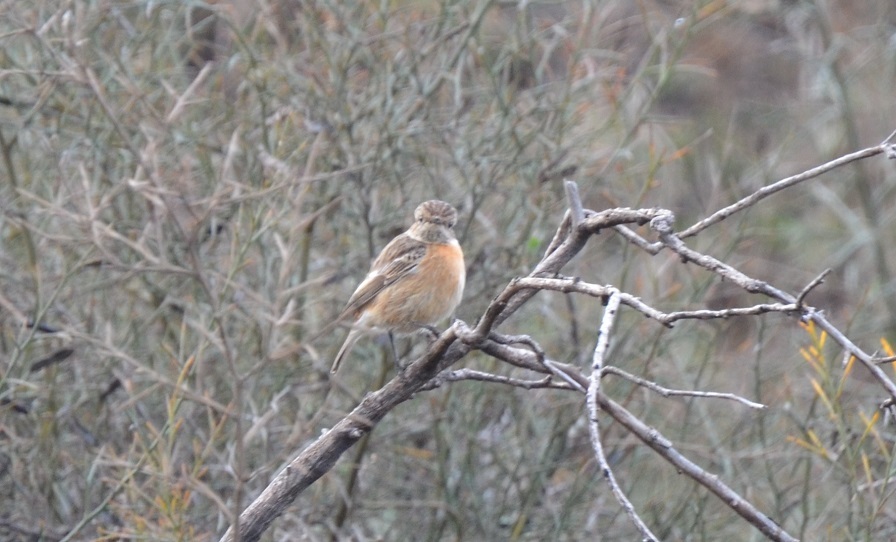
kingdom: Animalia
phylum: Chordata
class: Aves
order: Passeriformes
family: Muscicapidae
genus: Saxicola
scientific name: Saxicola rubicola
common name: European stonechat
